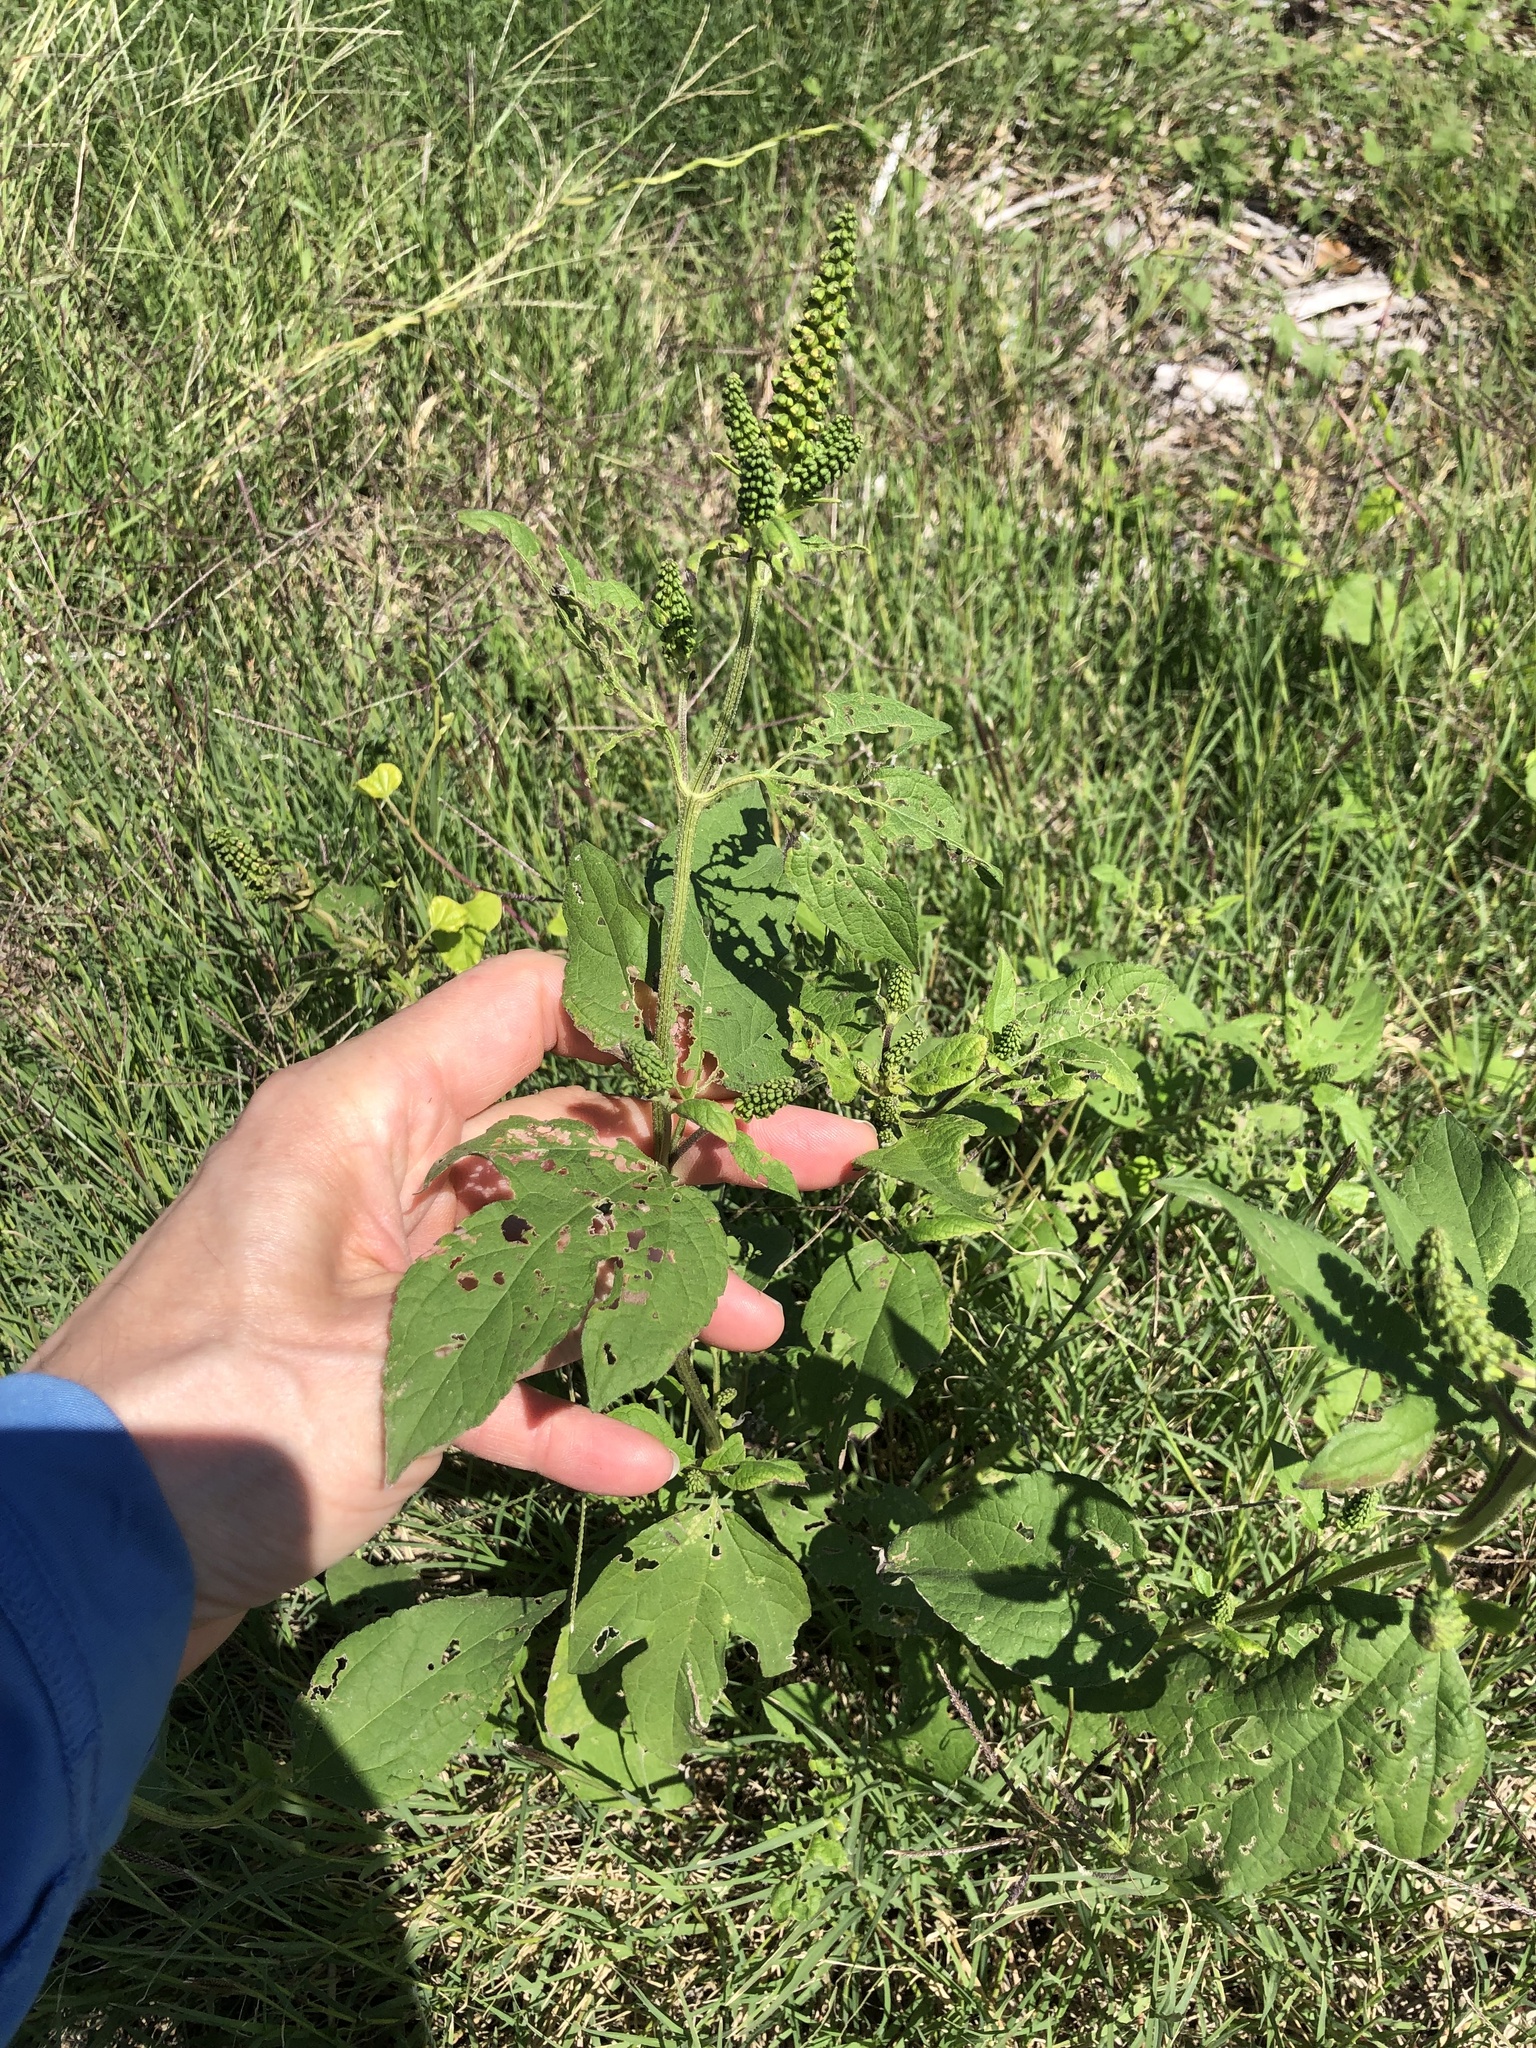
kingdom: Plantae
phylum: Tracheophyta
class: Magnoliopsida
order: Asterales
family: Asteraceae
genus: Ambrosia
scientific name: Ambrosia trifida
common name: Giant ragweed
